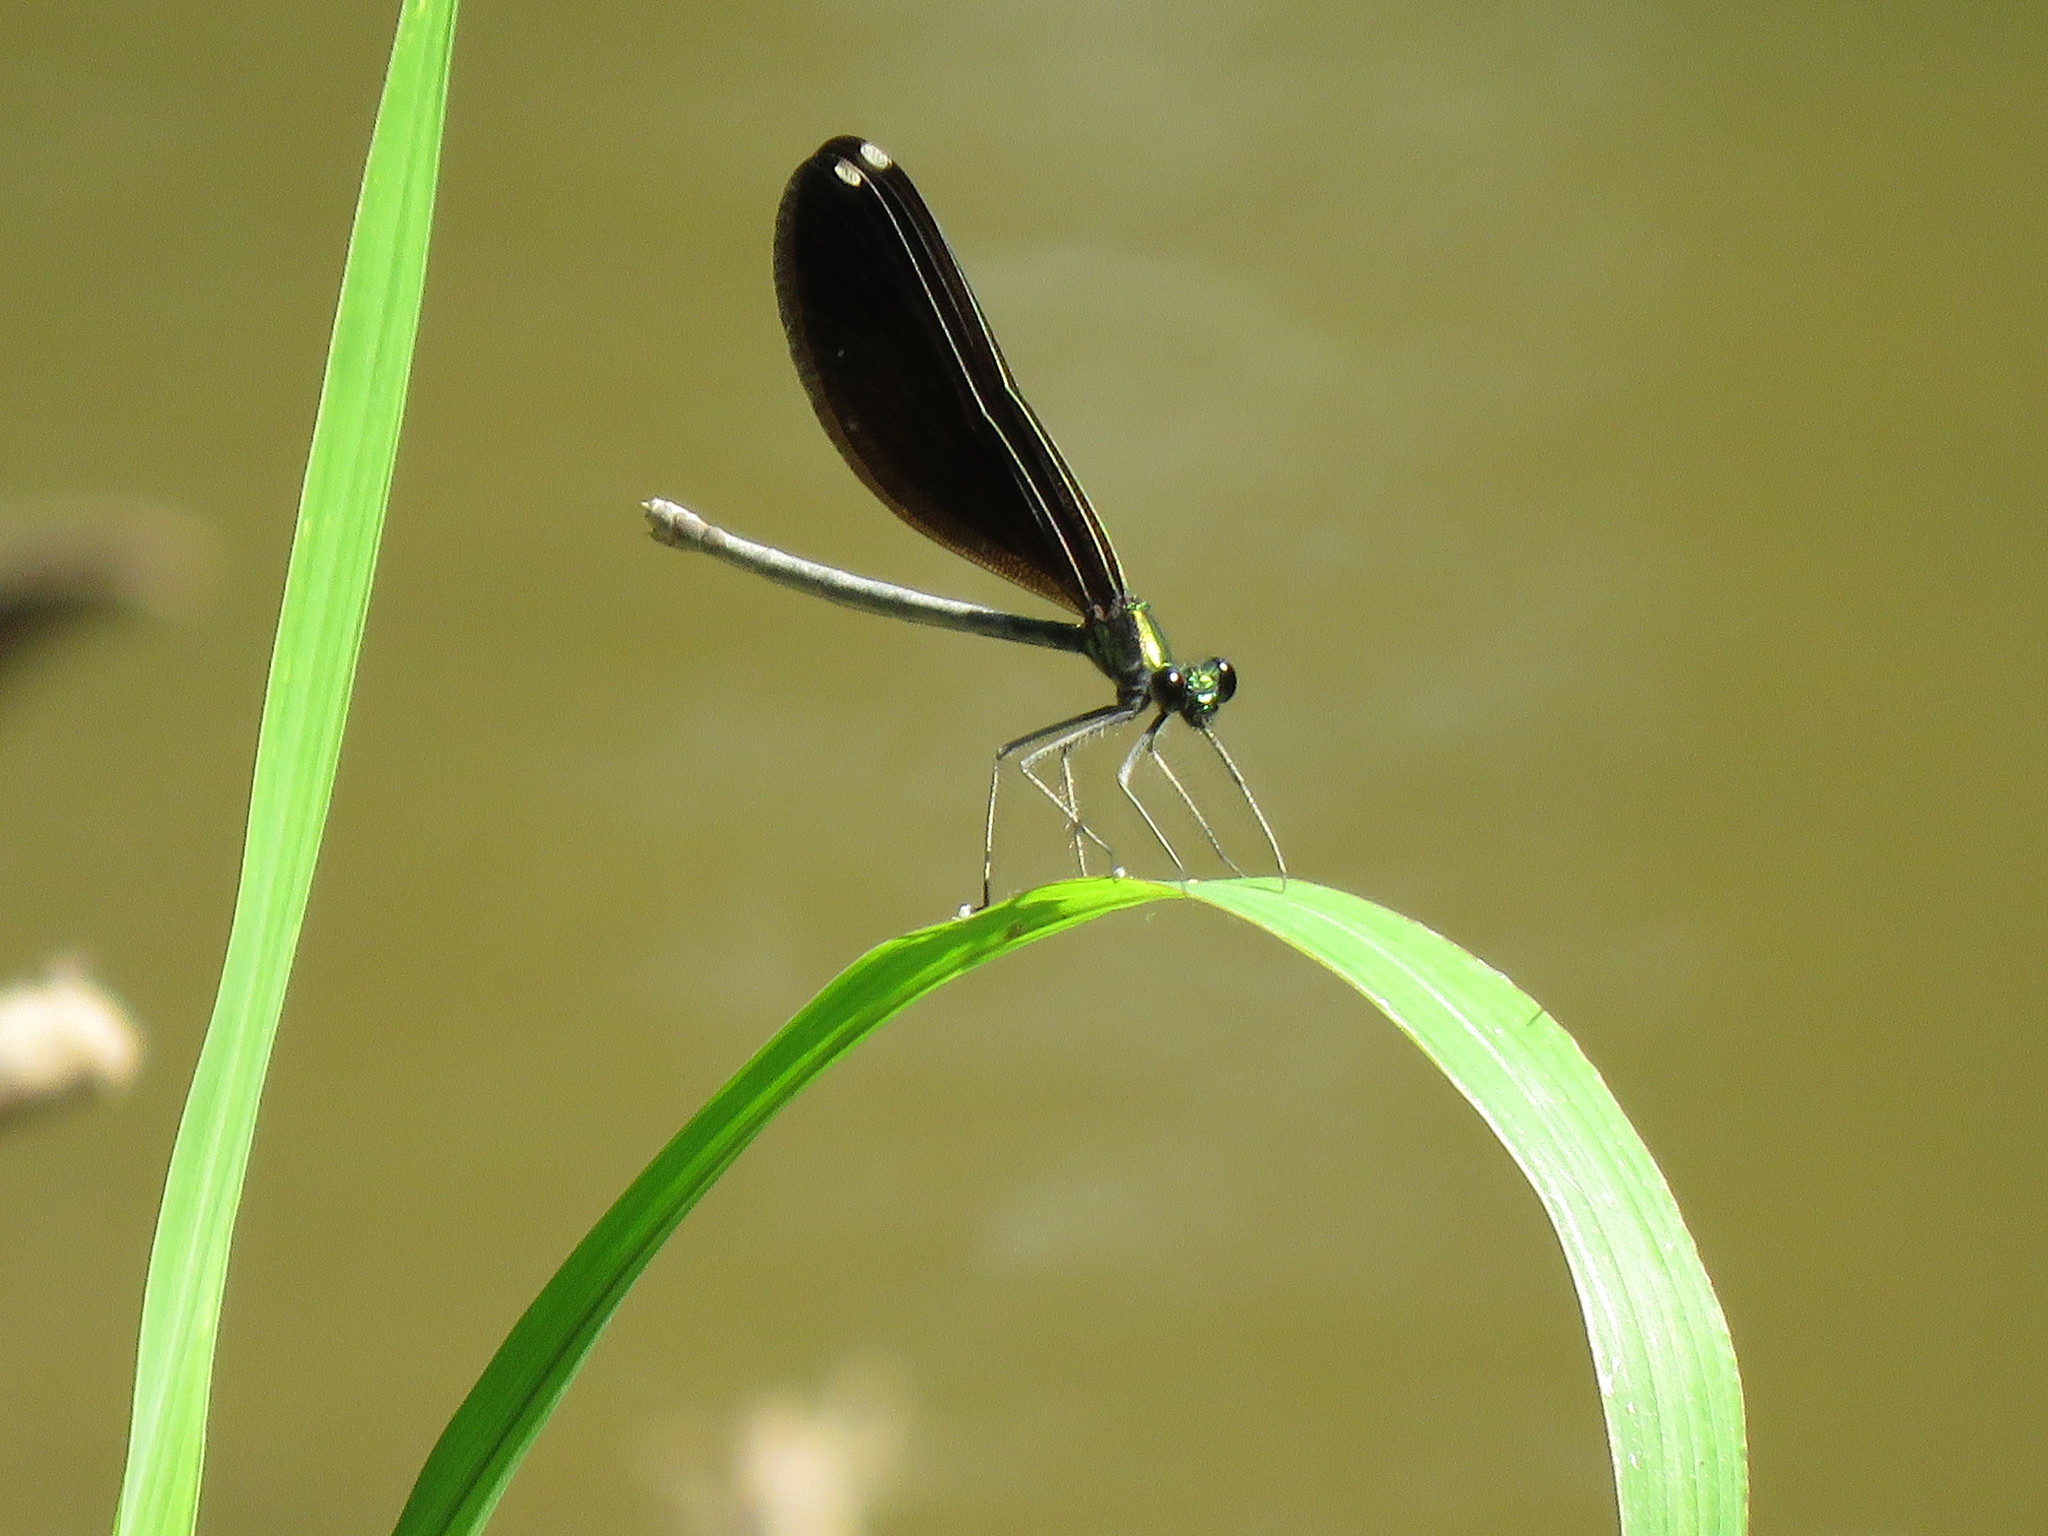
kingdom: Animalia
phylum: Arthropoda
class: Insecta
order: Odonata
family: Calopterygidae
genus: Calopteryx
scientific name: Calopteryx maculata
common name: Ebony jewelwing
